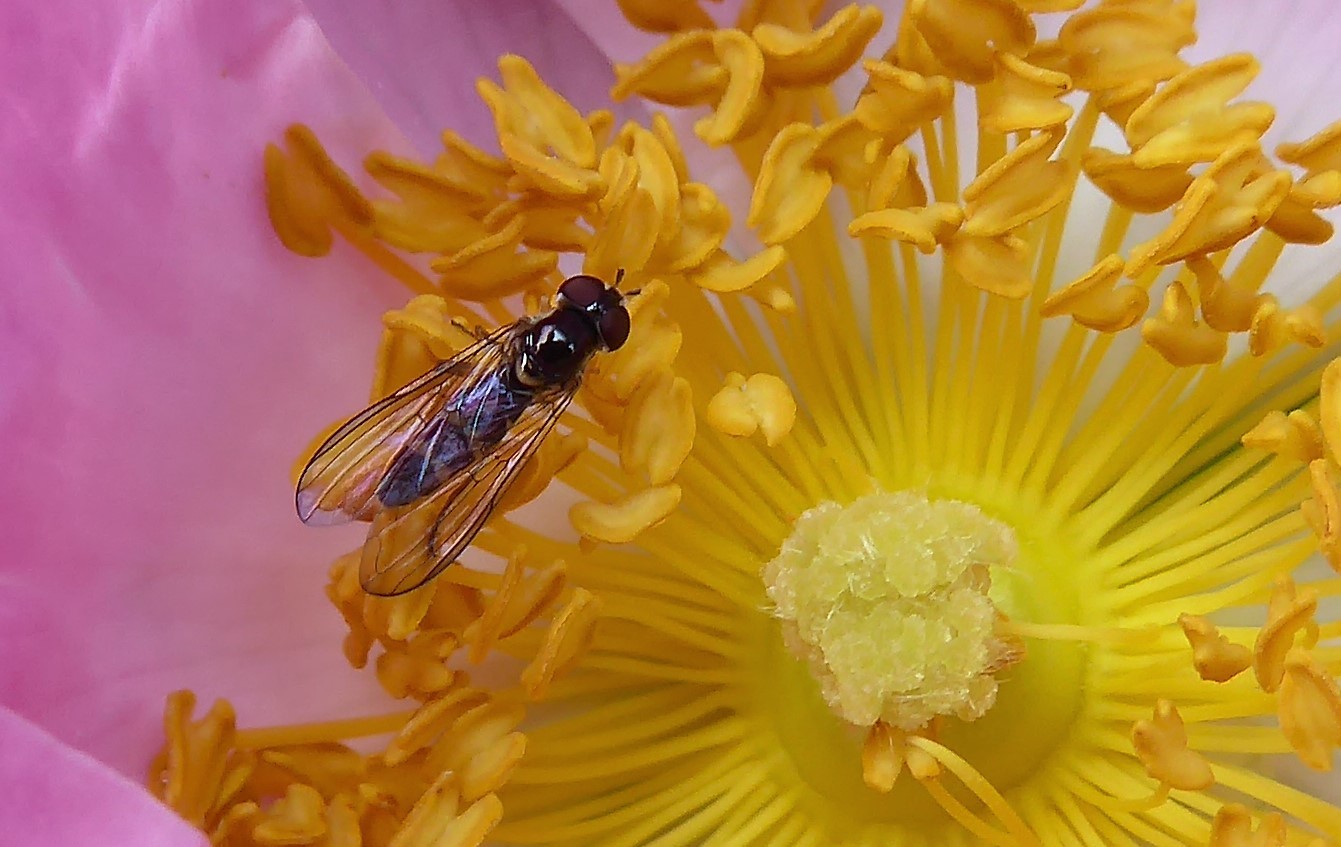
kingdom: Animalia
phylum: Arthropoda
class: Insecta
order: Diptera
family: Syrphidae
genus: Melangyna
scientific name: Melangyna novaezelandiae
